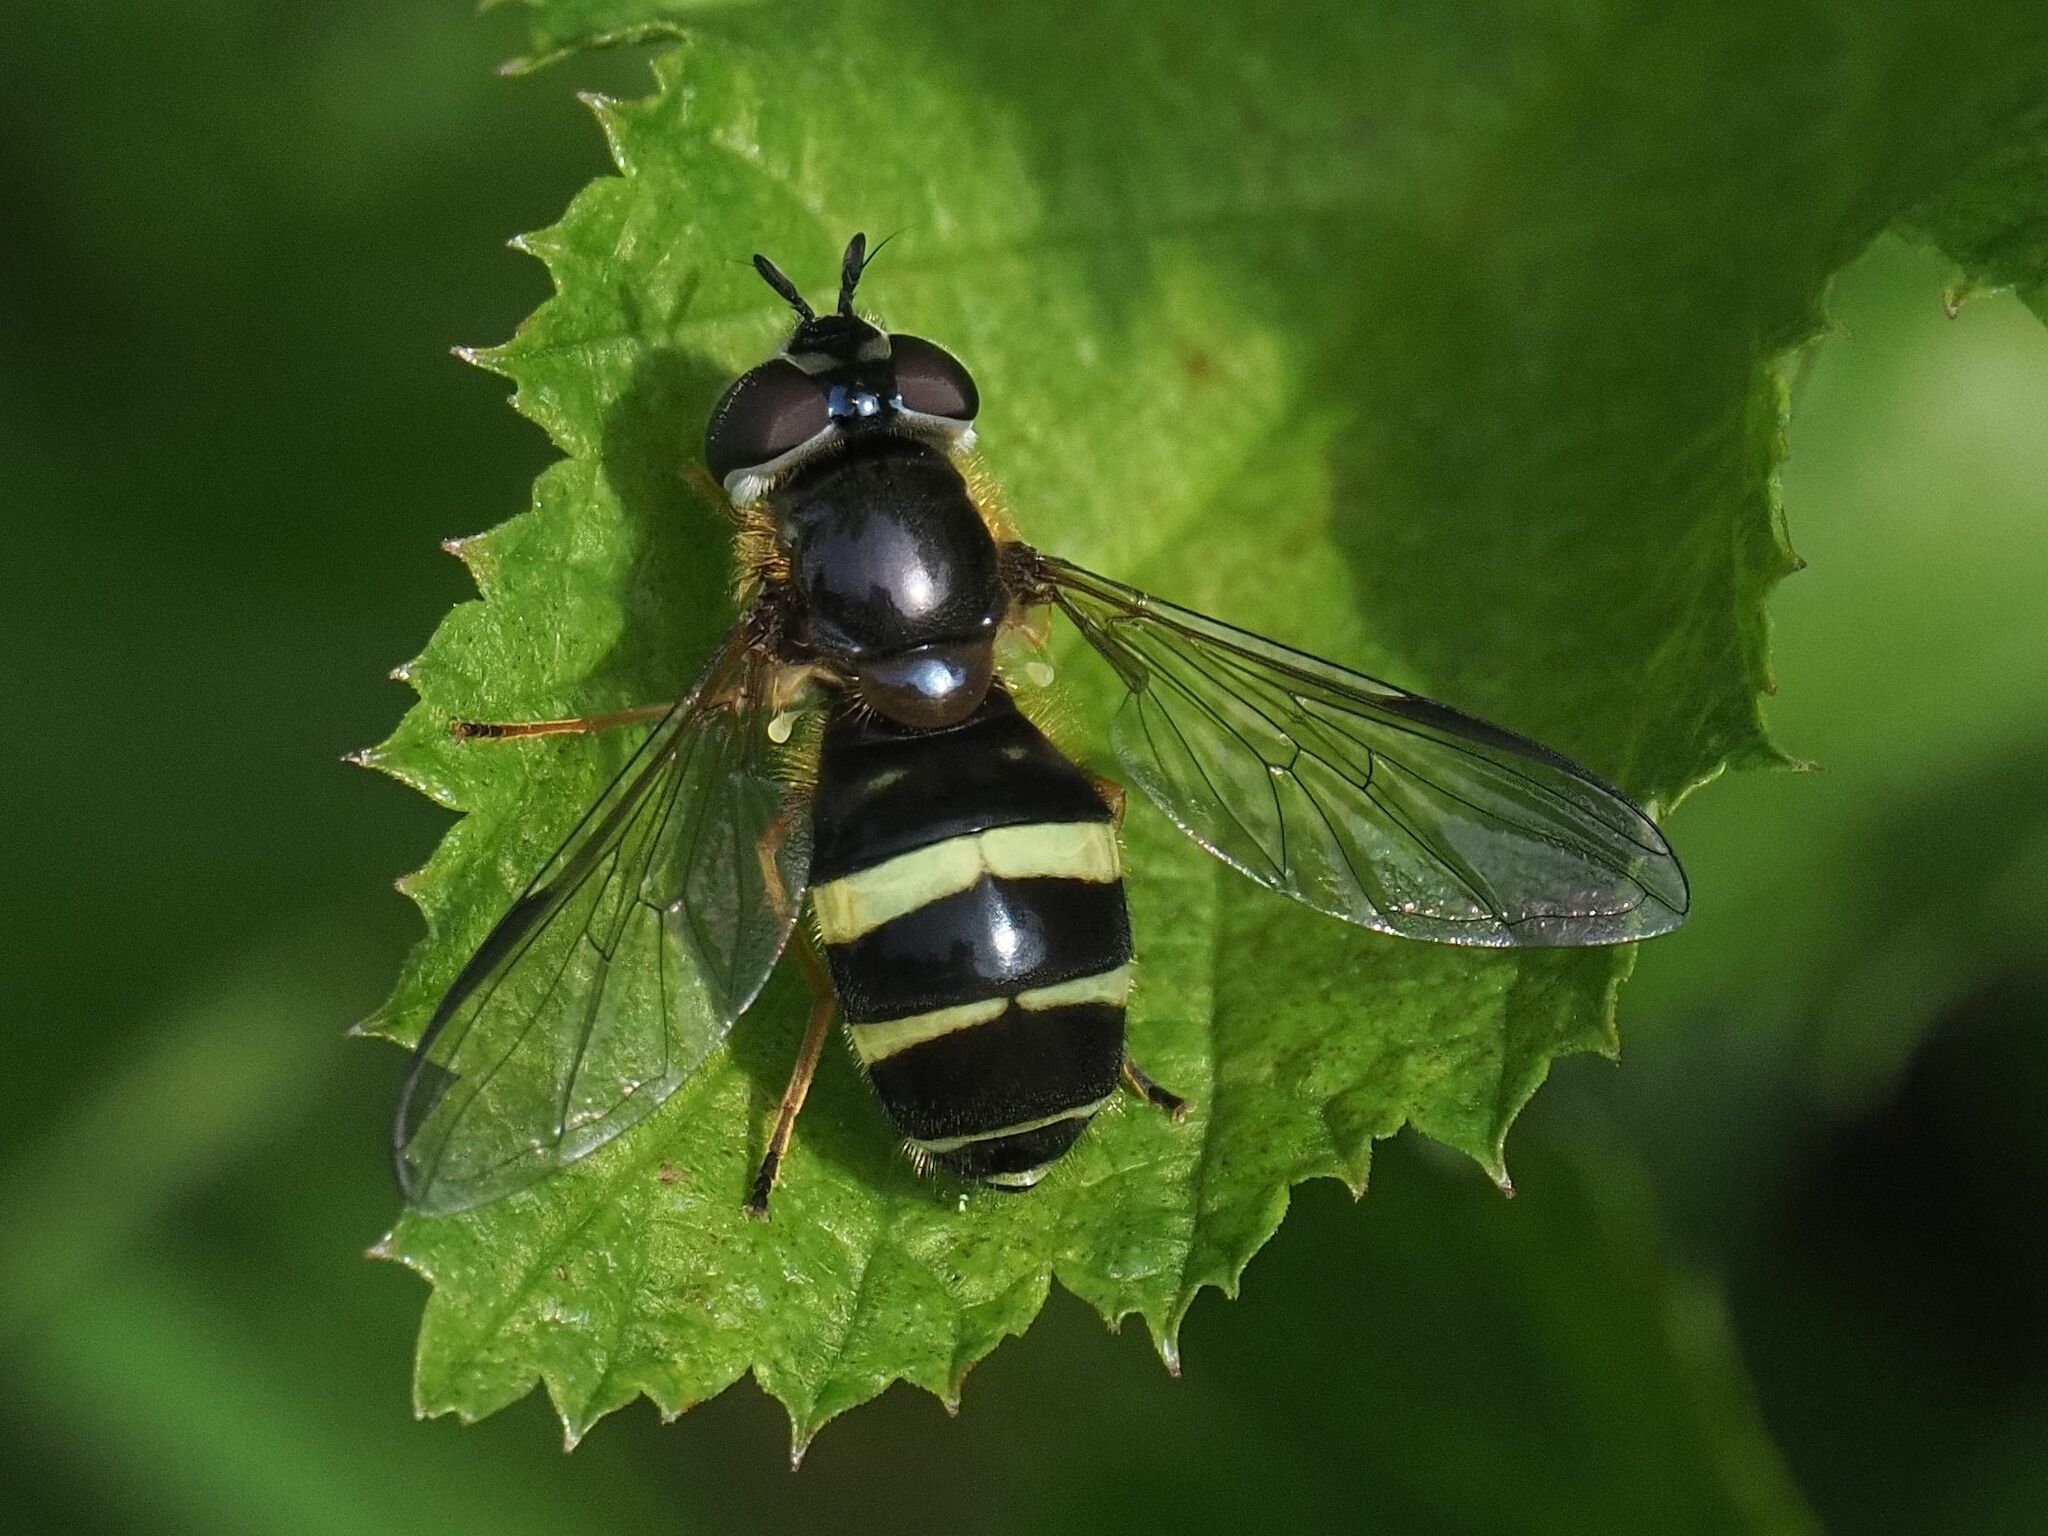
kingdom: Animalia
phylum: Arthropoda
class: Insecta
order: Diptera
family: Syrphidae
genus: Dasysyrphus
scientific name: Dasysyrphus tricinctus
